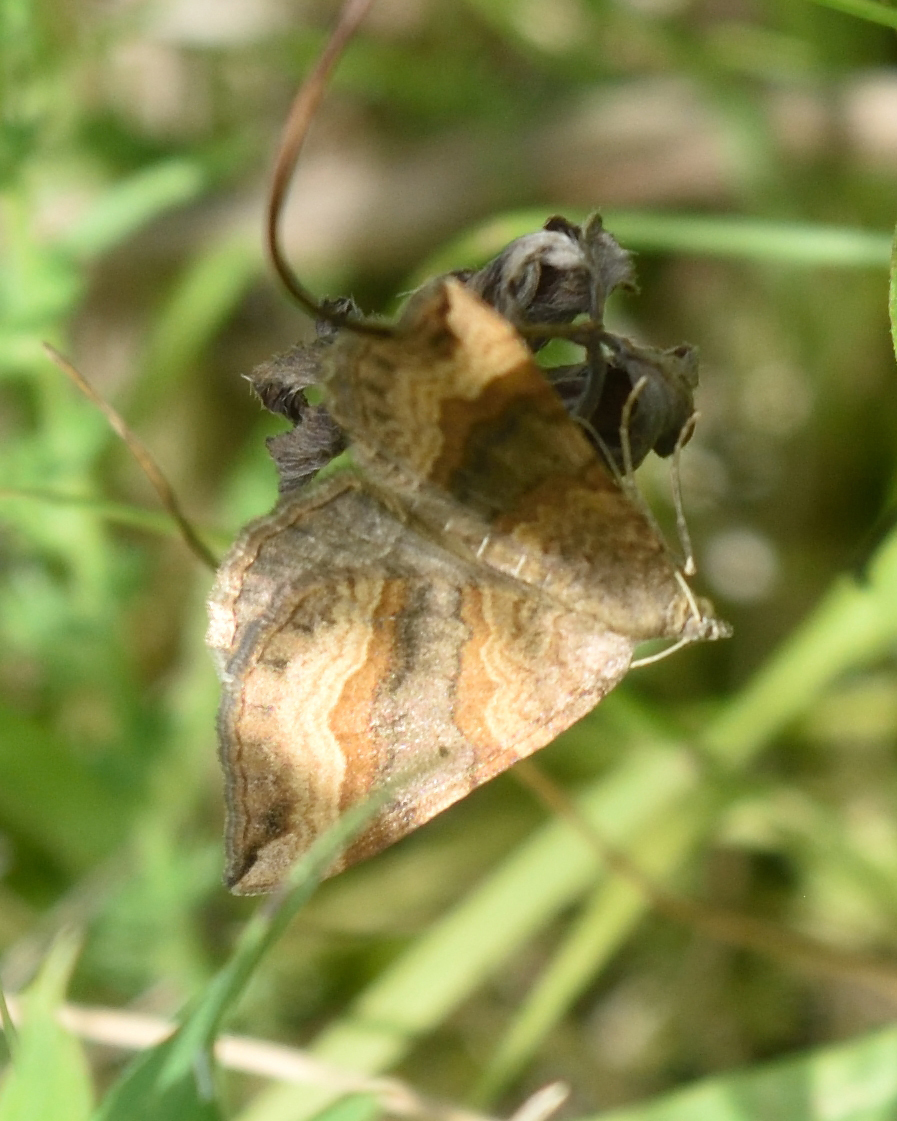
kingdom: Animalia
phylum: Arthropoda
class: Insecta
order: Lepidoptera
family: Geometridae
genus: Scotopteryx
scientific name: Scotopteryx chenopodiata
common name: Shaded broad-bar
